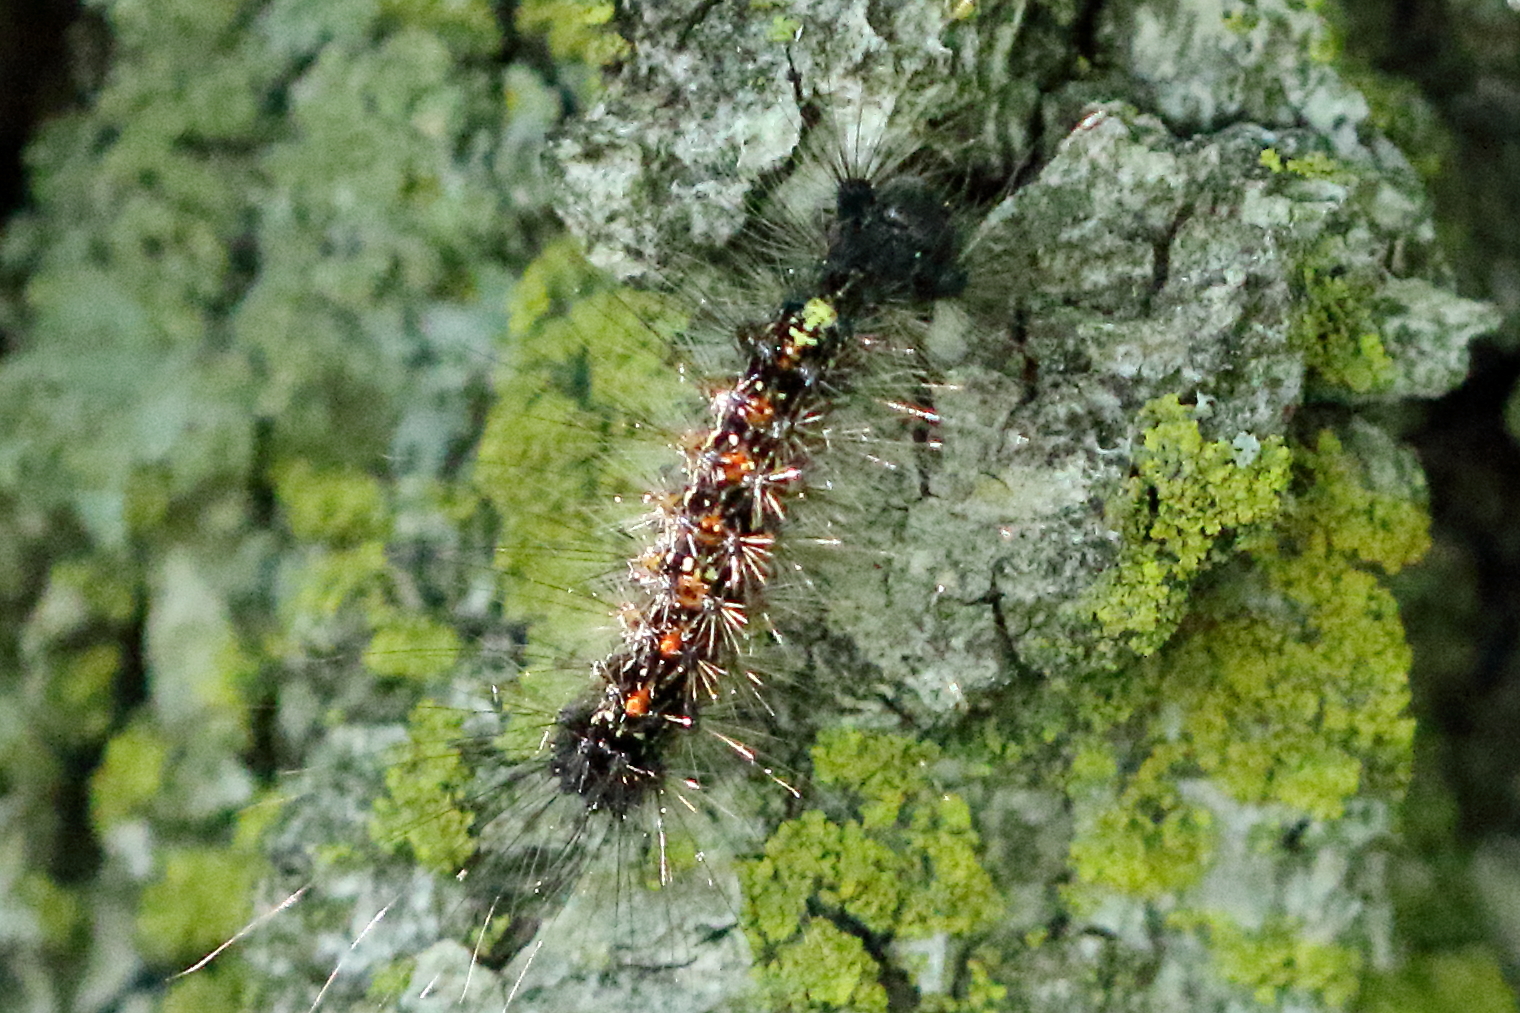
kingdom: Animalia
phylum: Arthropoda
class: Insecta
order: Lepidoptera
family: Erebidae
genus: Lymantria
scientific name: Lymantria dispar
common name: Gypsy moth
